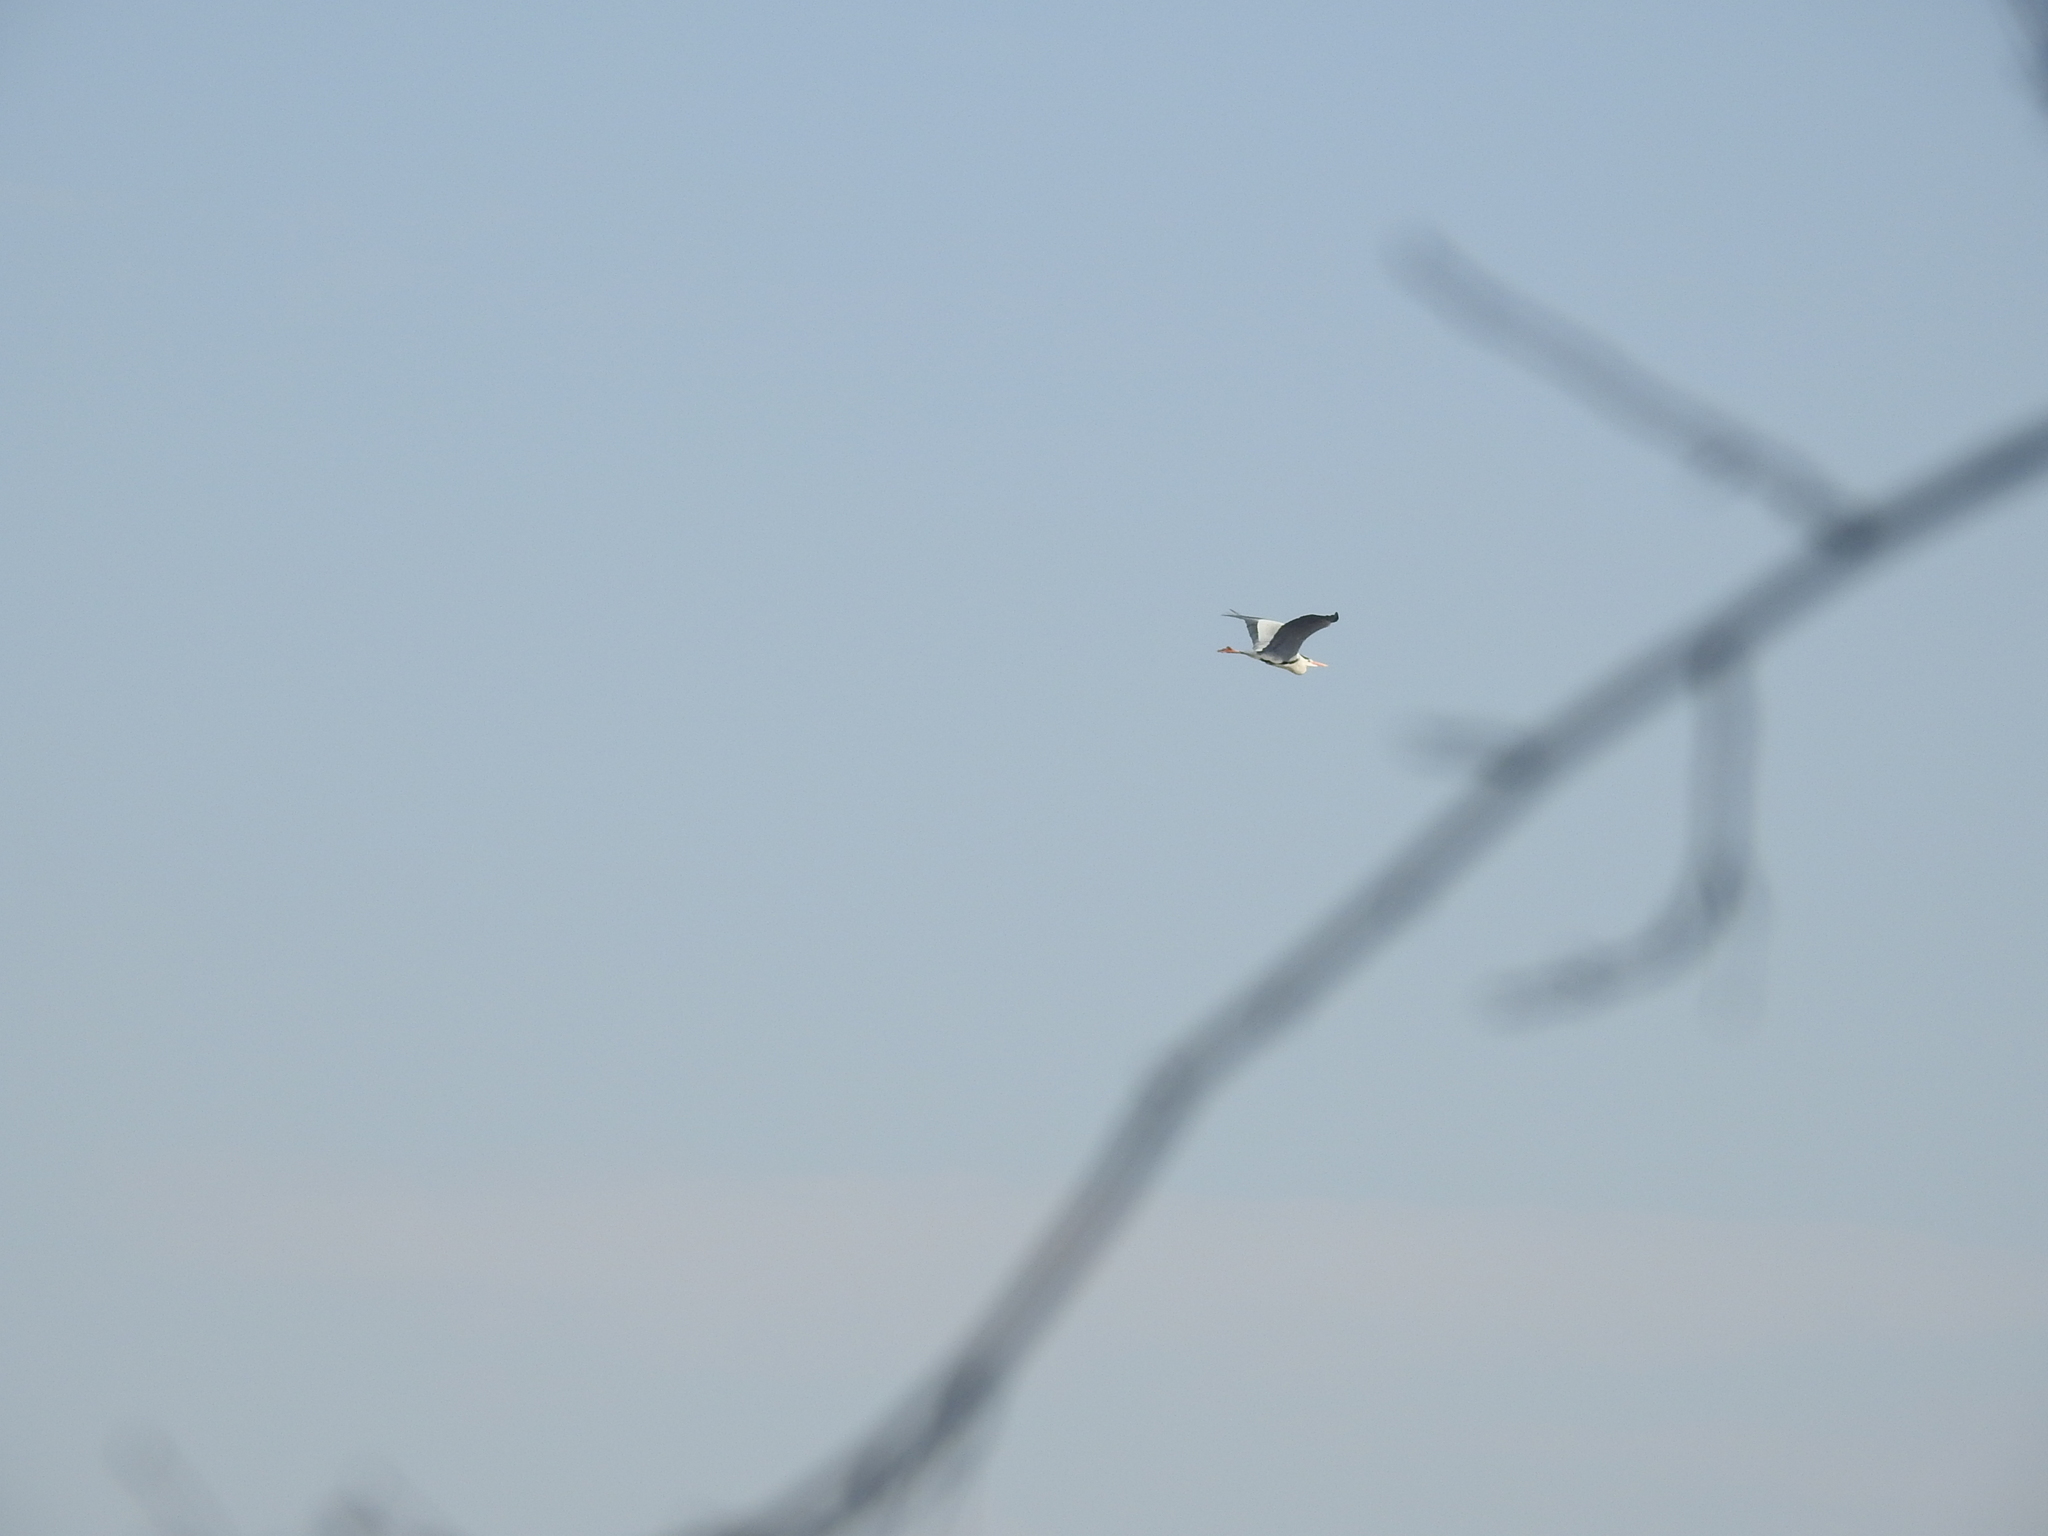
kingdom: Animalia
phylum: Chordata
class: Aves
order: Pelecaniformes
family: Ardeidae
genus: Ardea
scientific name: Ardea cinerea
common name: Grey heron
